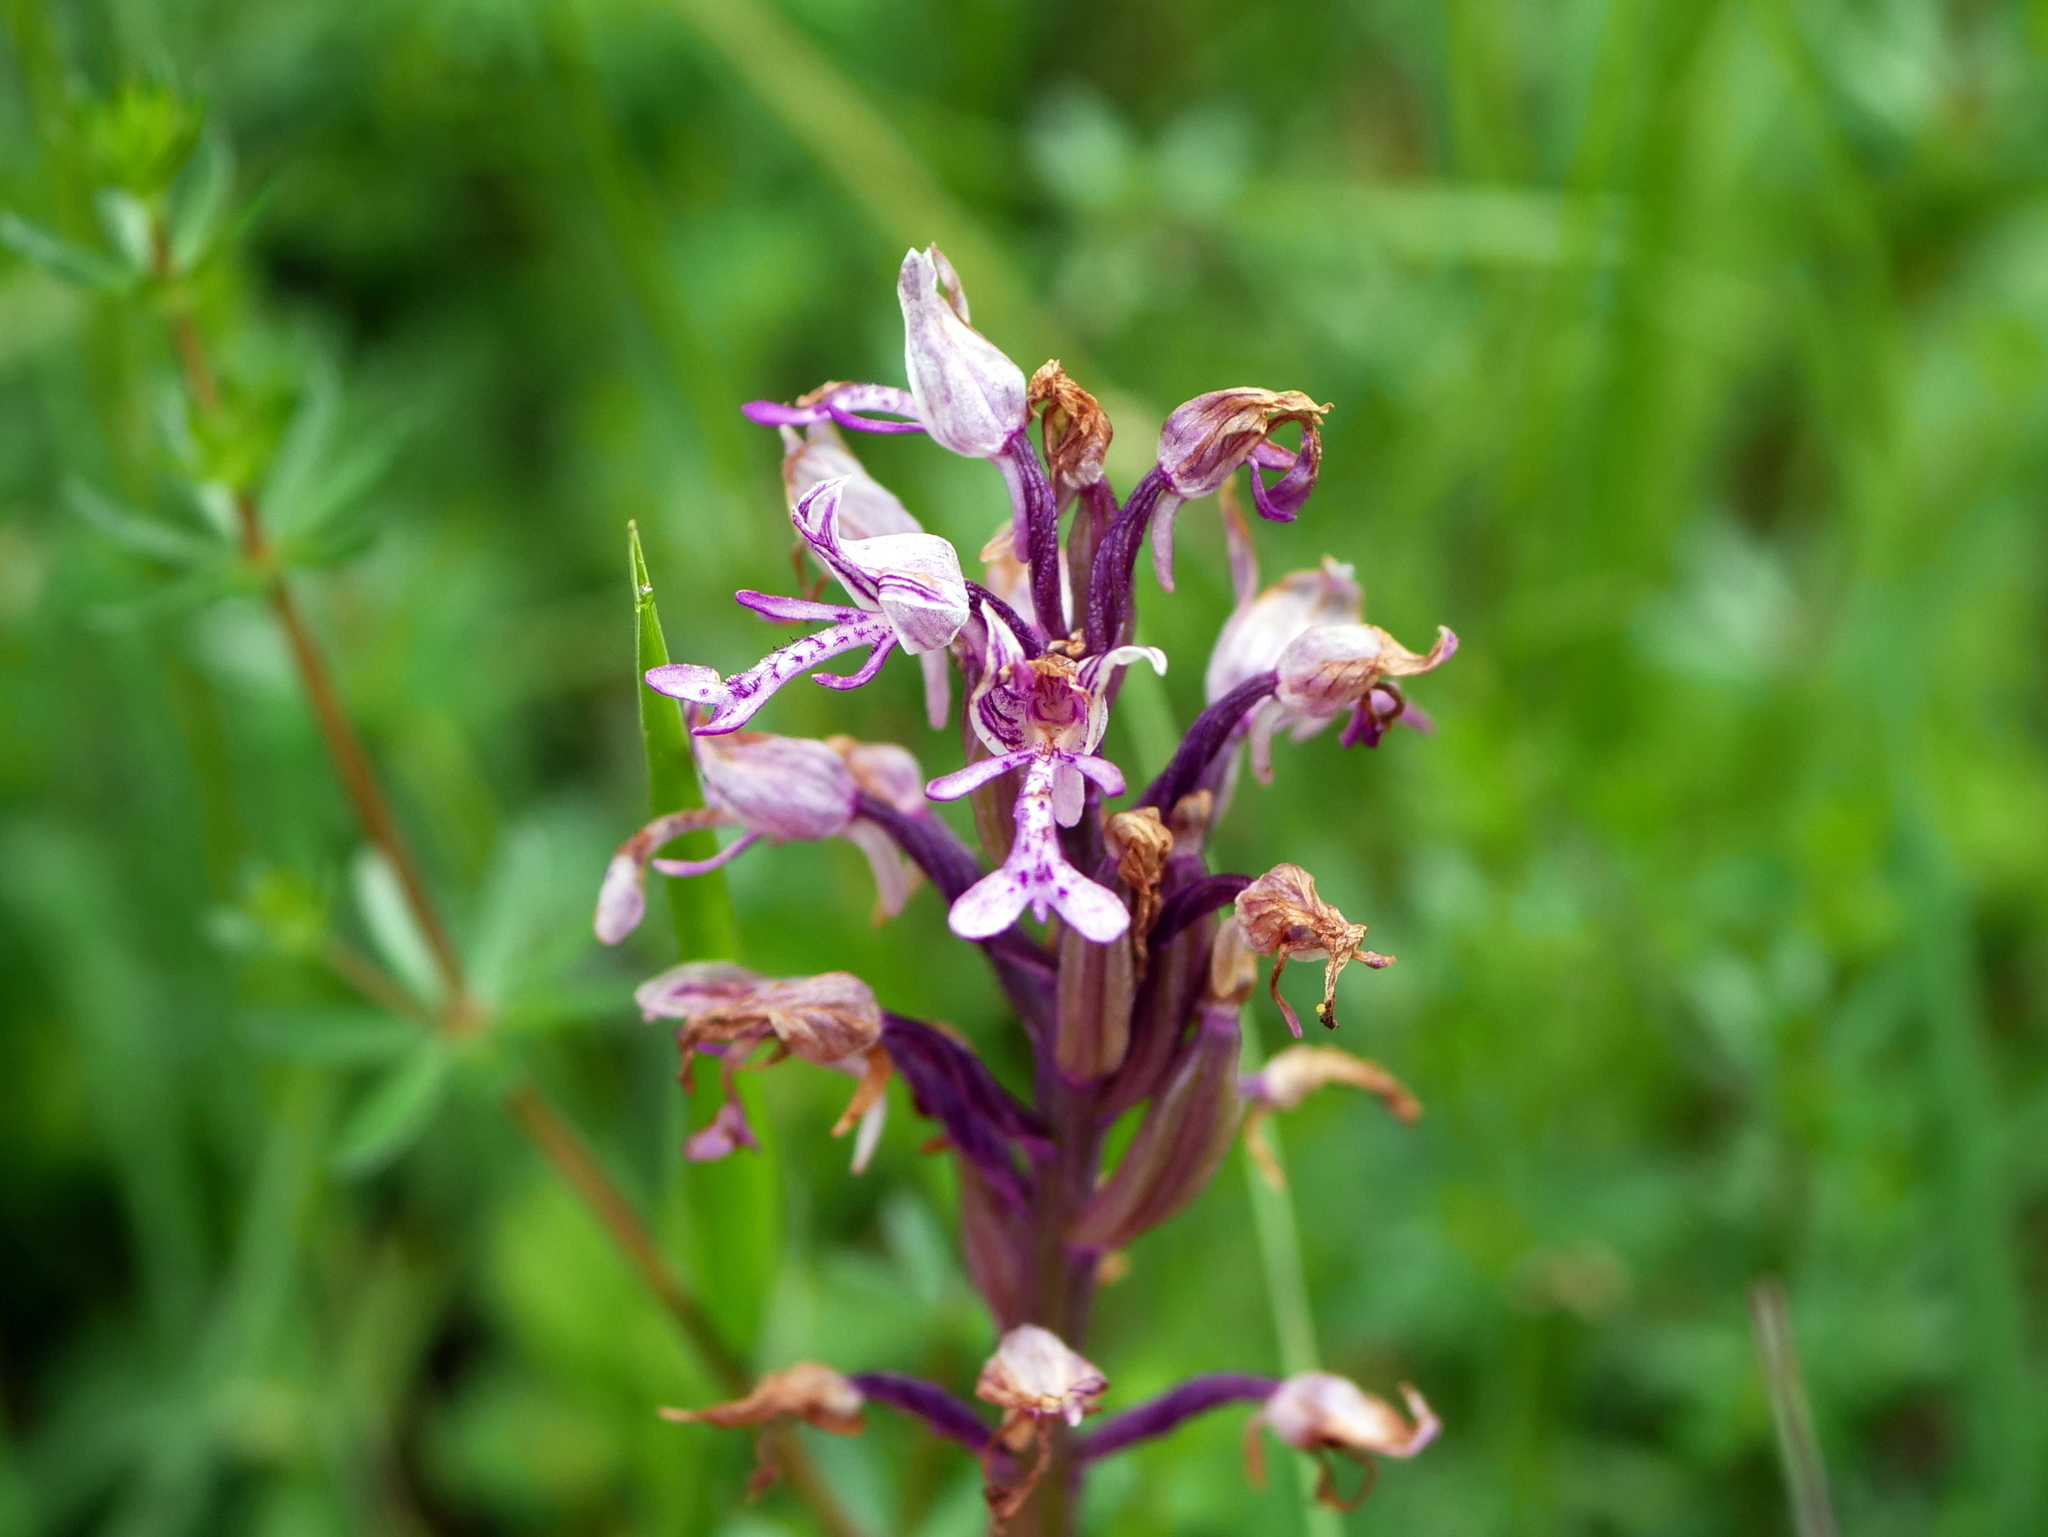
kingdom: Plantae
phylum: Tracheophyta
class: Liliopsida
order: Asparagales
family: Orchidaceae
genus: Orchis
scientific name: Orchis militaris
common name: Military orchid
